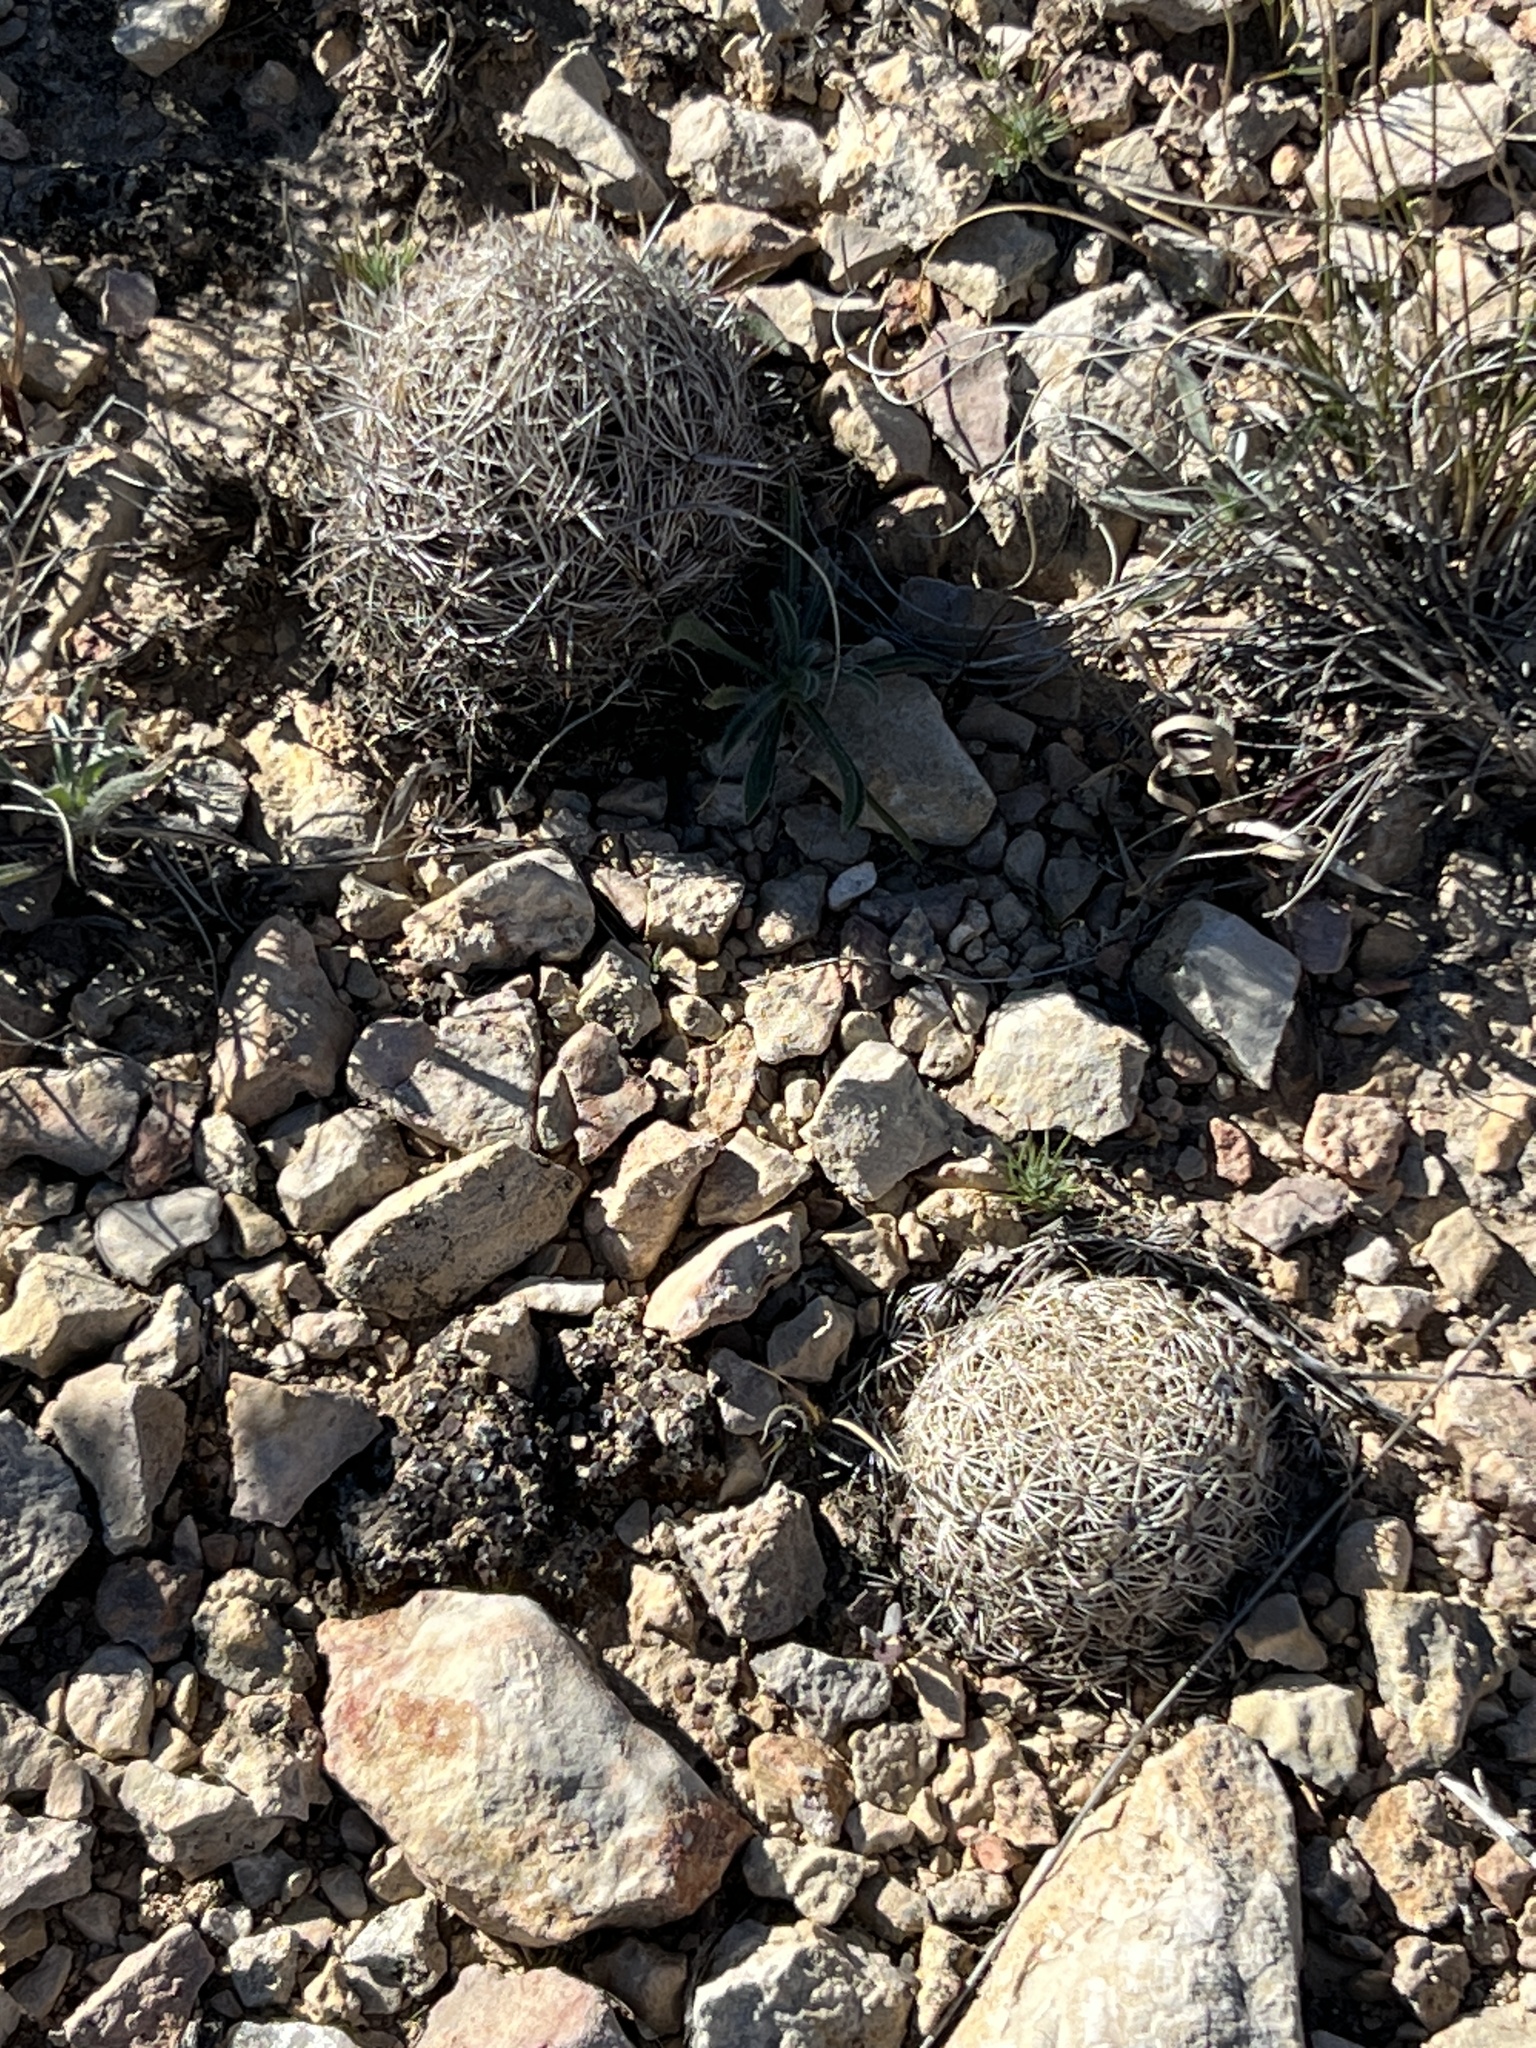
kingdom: Plantae
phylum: Tracheophyta
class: Magnoliopsida
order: Caryophyllales
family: Cactaceae
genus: Coryphantha
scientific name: Coryphantha echinus
